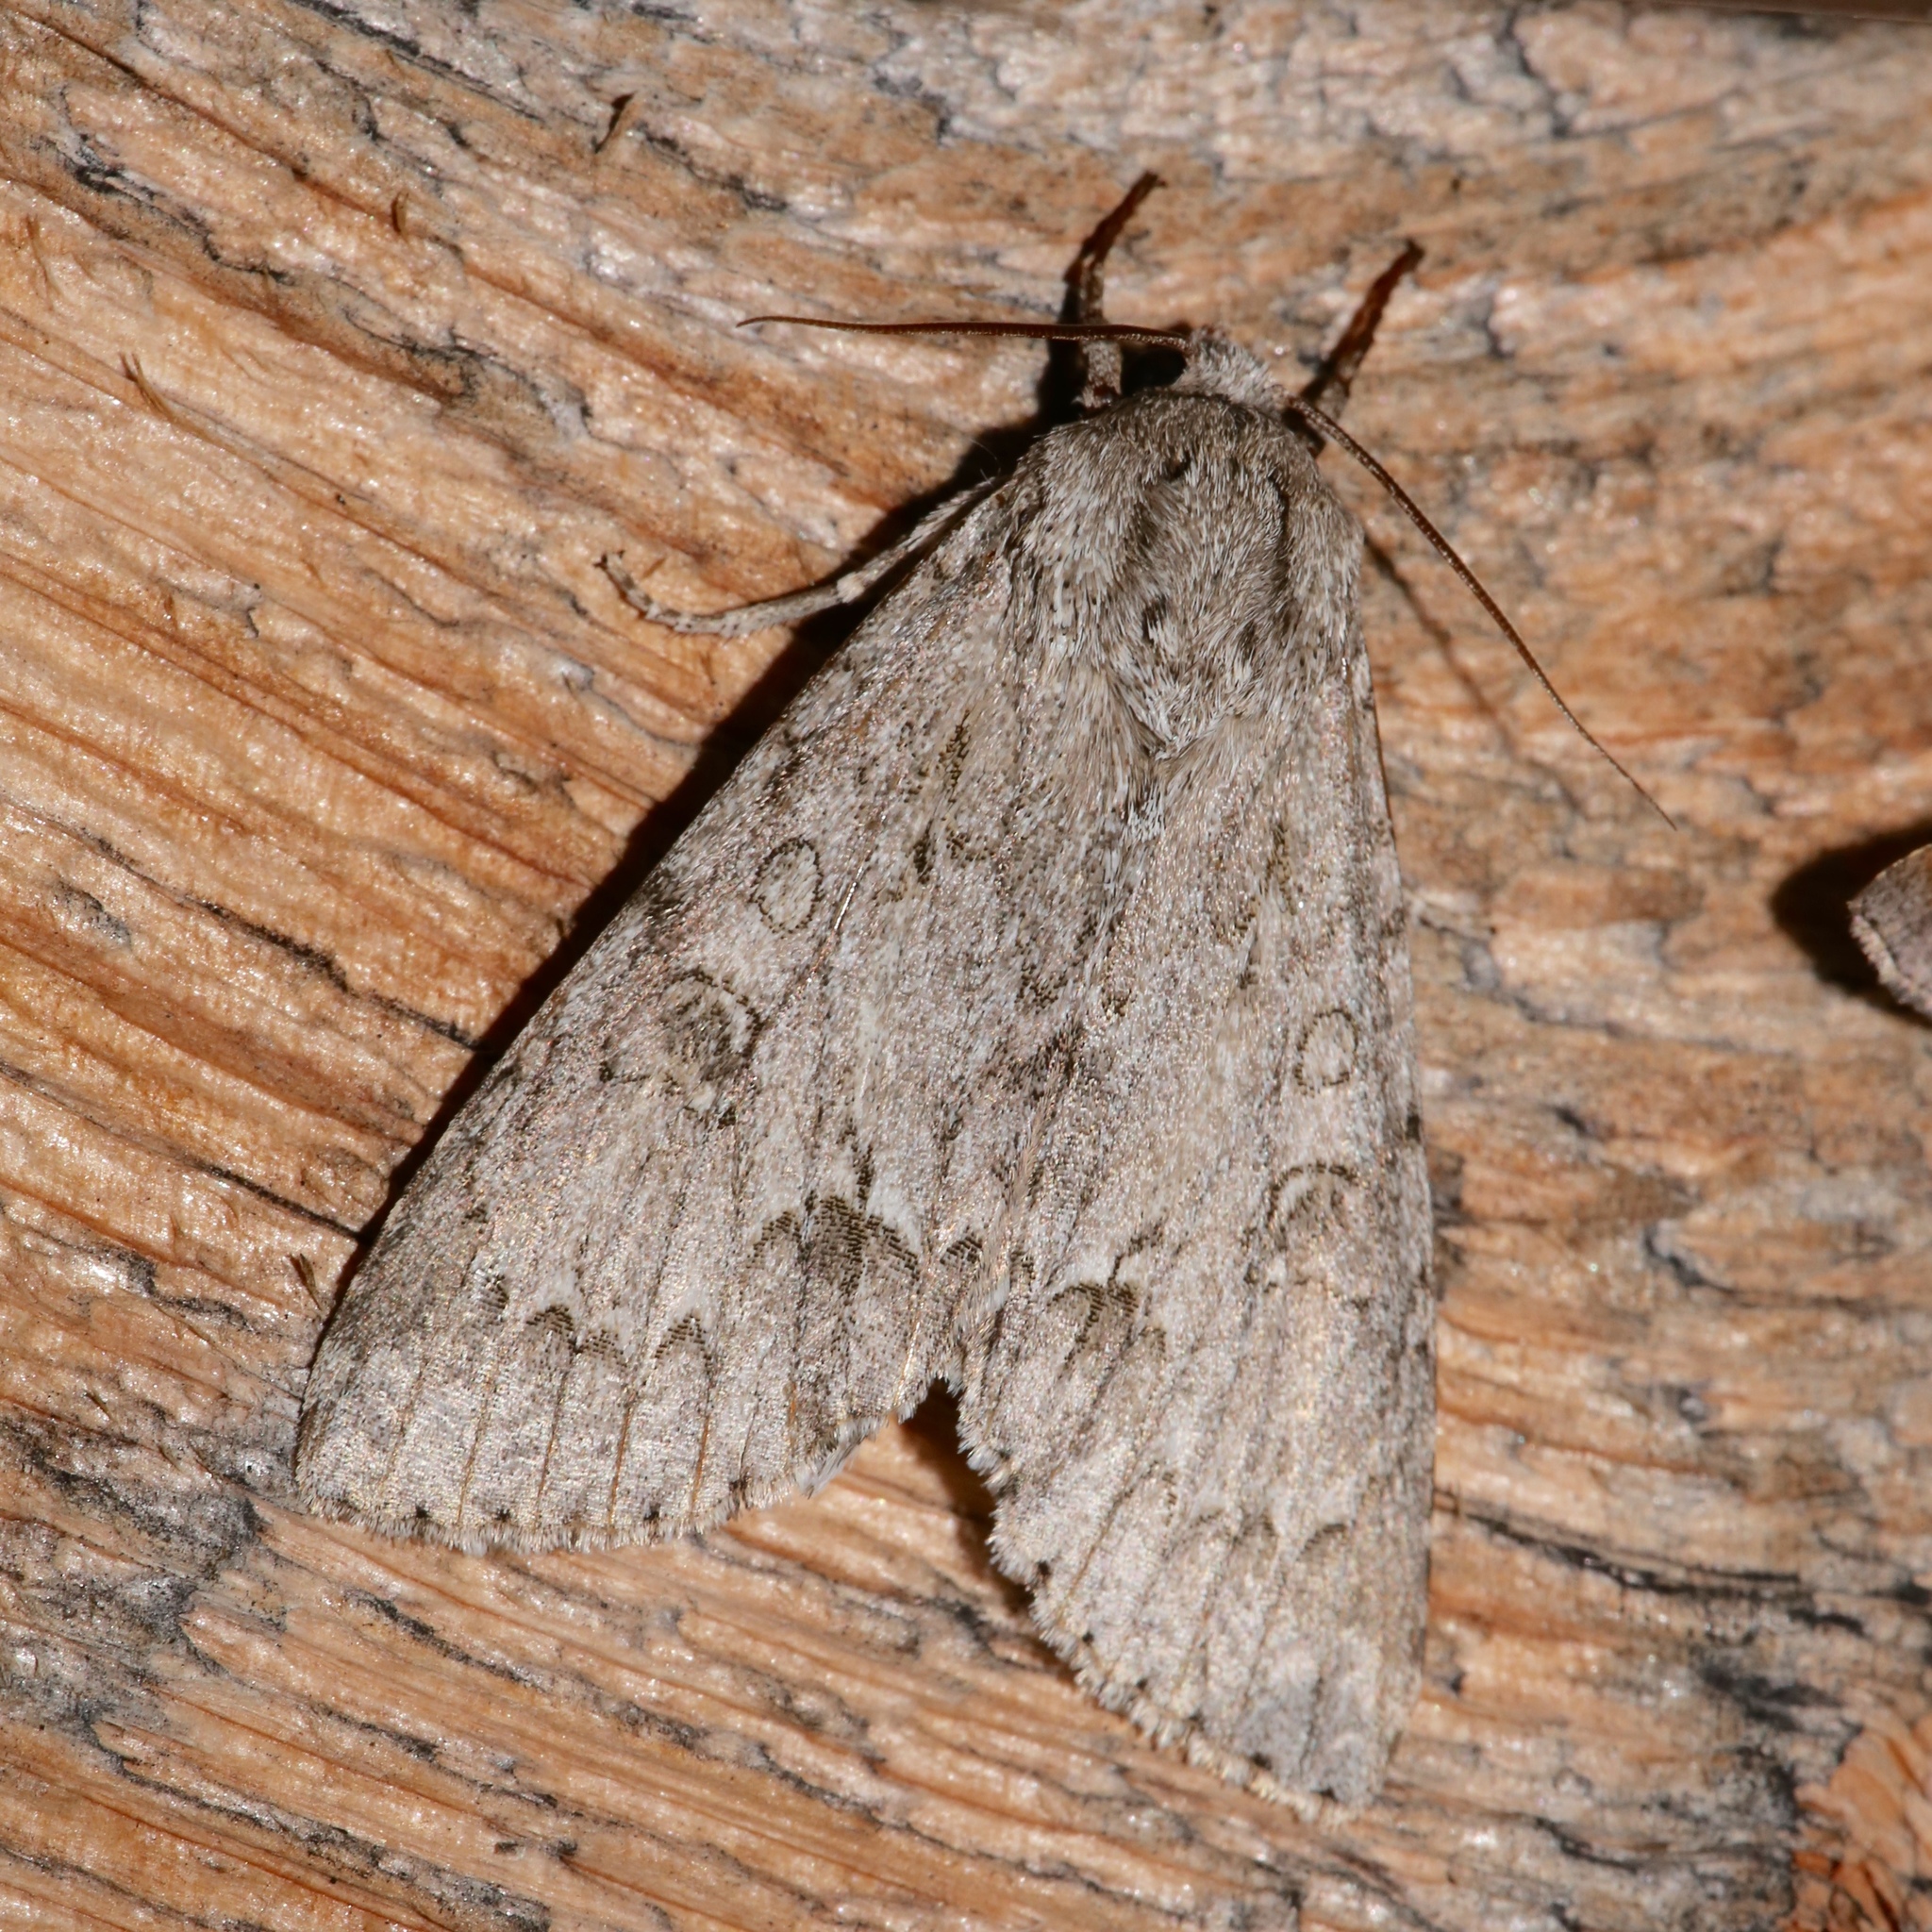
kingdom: Animalia
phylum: Arthropoda
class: Insecta
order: Lepidoptera
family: Noctuidae
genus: Acronicta
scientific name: Acronicta americana
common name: American dagger
